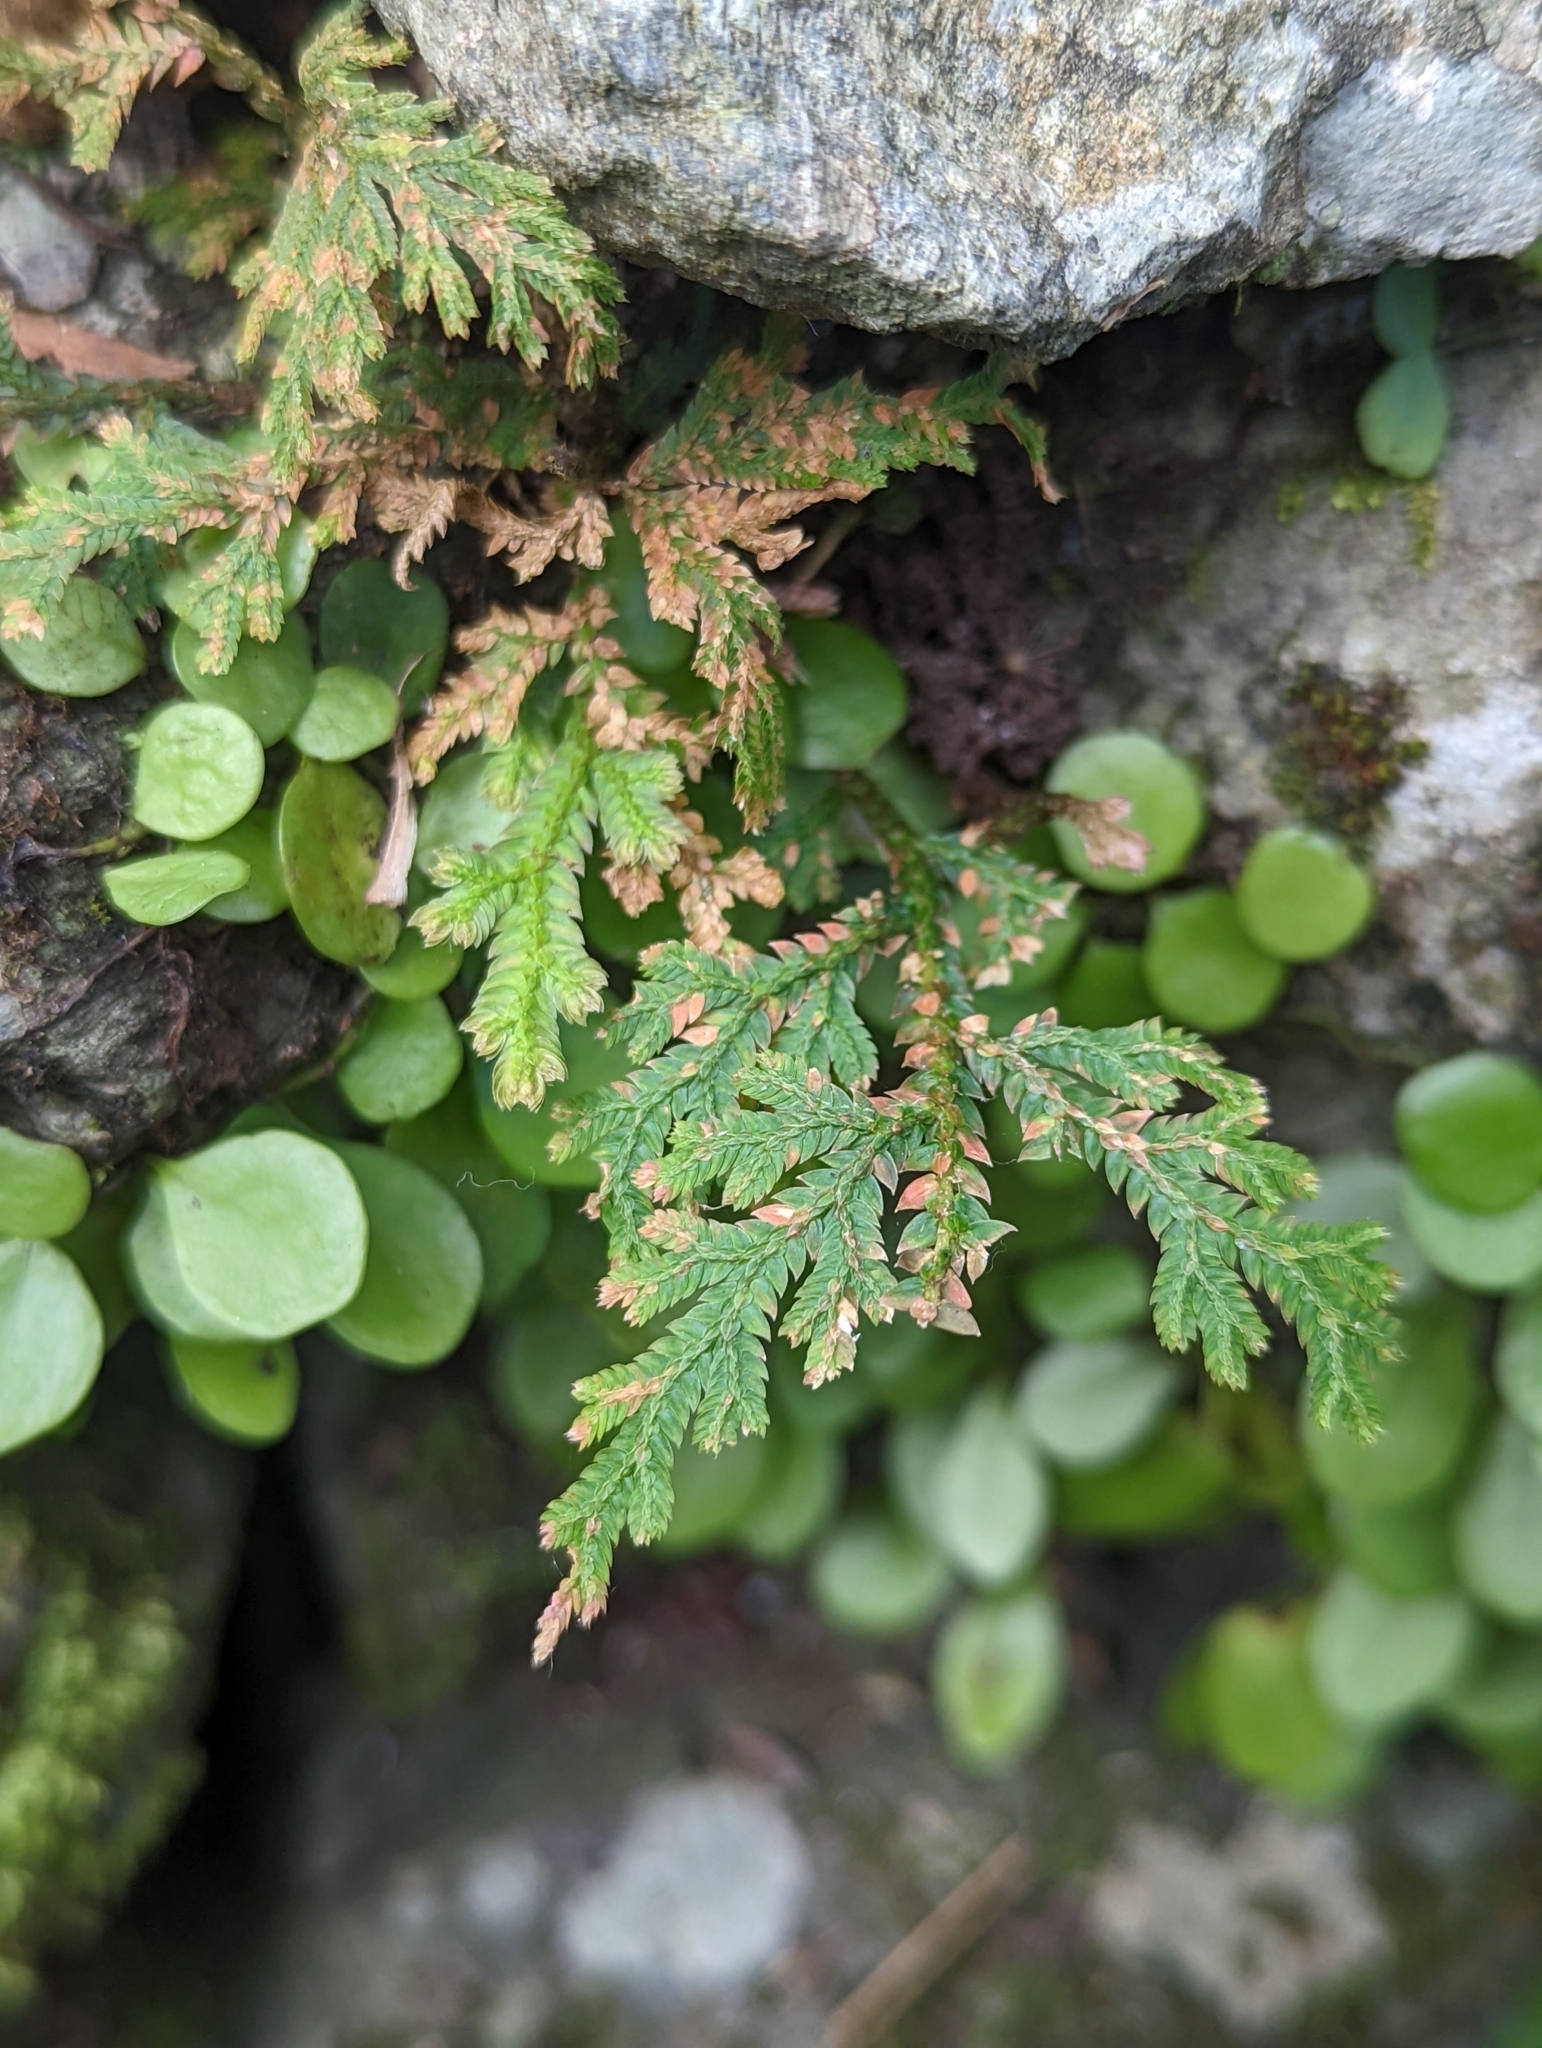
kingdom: Plantae
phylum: Tracheophyta
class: Lycopodiopsida
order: Selaginellales
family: Selaginellaceae
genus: Selaginella
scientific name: Selaginella moellendorffii
